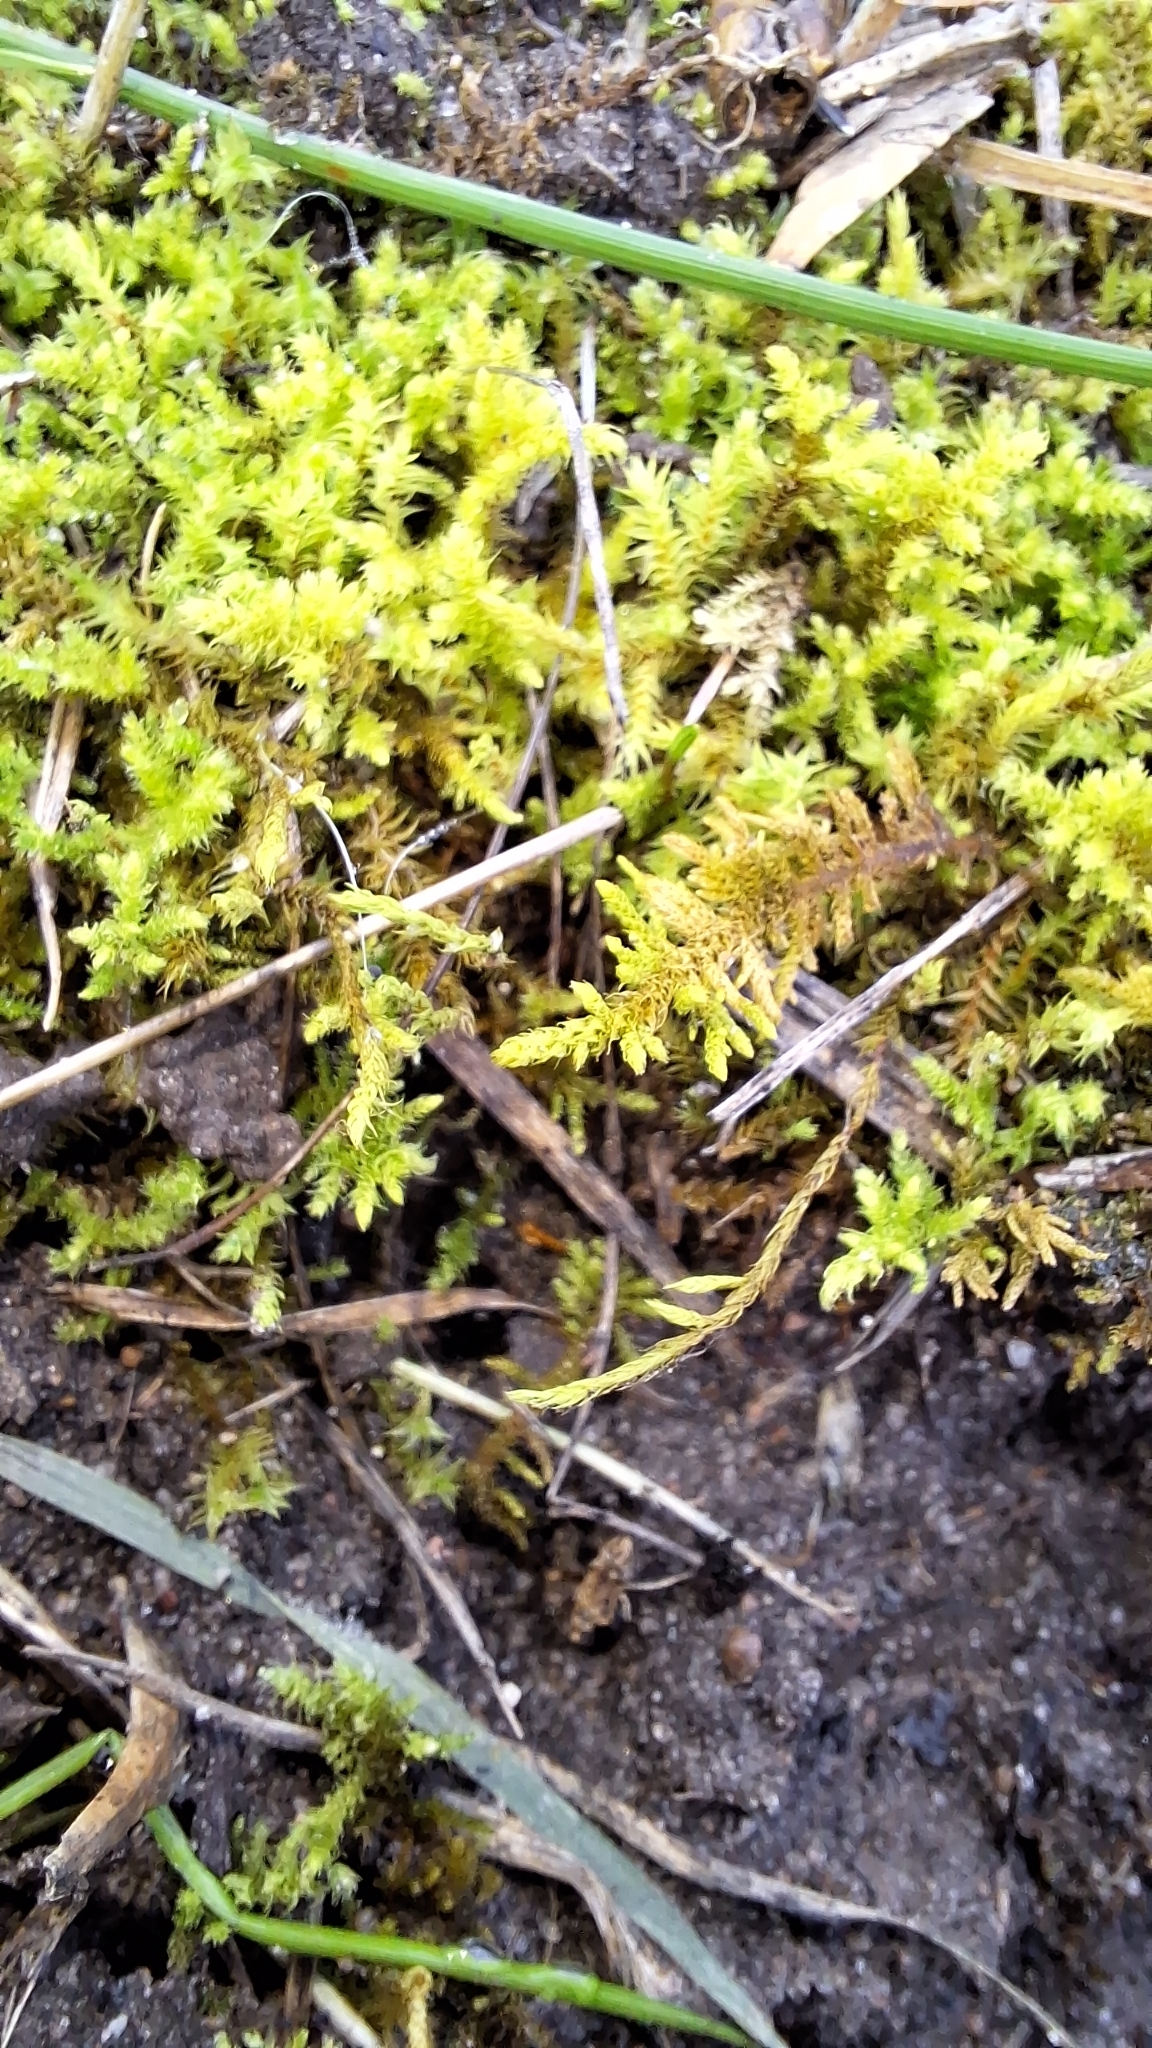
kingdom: Plantae
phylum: Bryophyta
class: Bryopsida
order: Hypnales
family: Thuidiaceae
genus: Thuidiopsis
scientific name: Thuidiopsis sparsa
